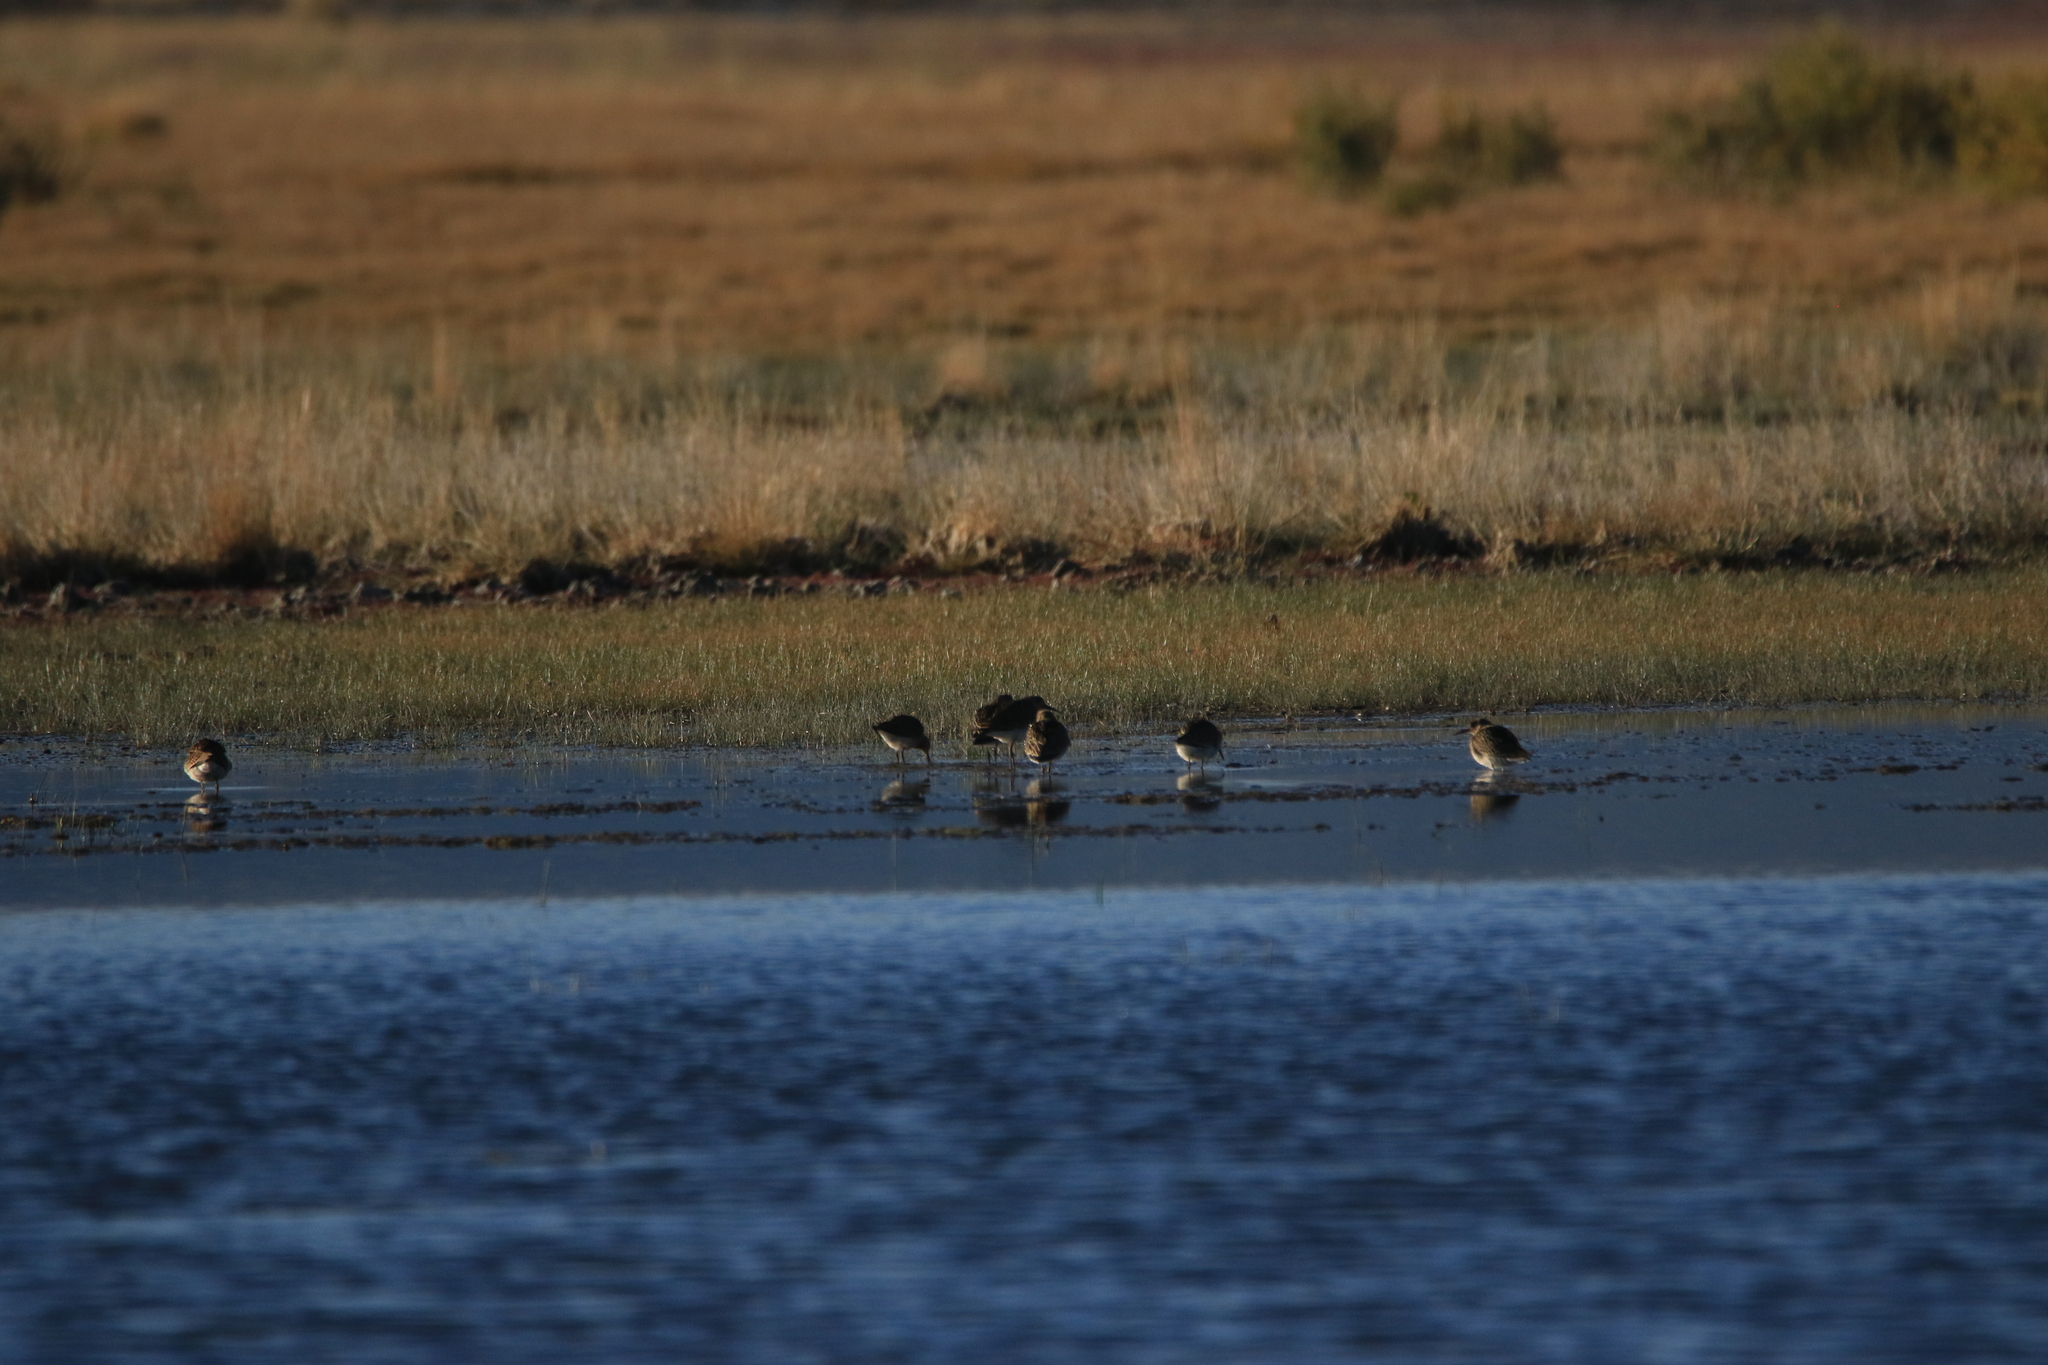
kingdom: Animalia
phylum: Chordata
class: Aves
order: Charadriiformes
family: Scolopacidae
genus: Calidris
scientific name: Calidris pugnax
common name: Ruff
